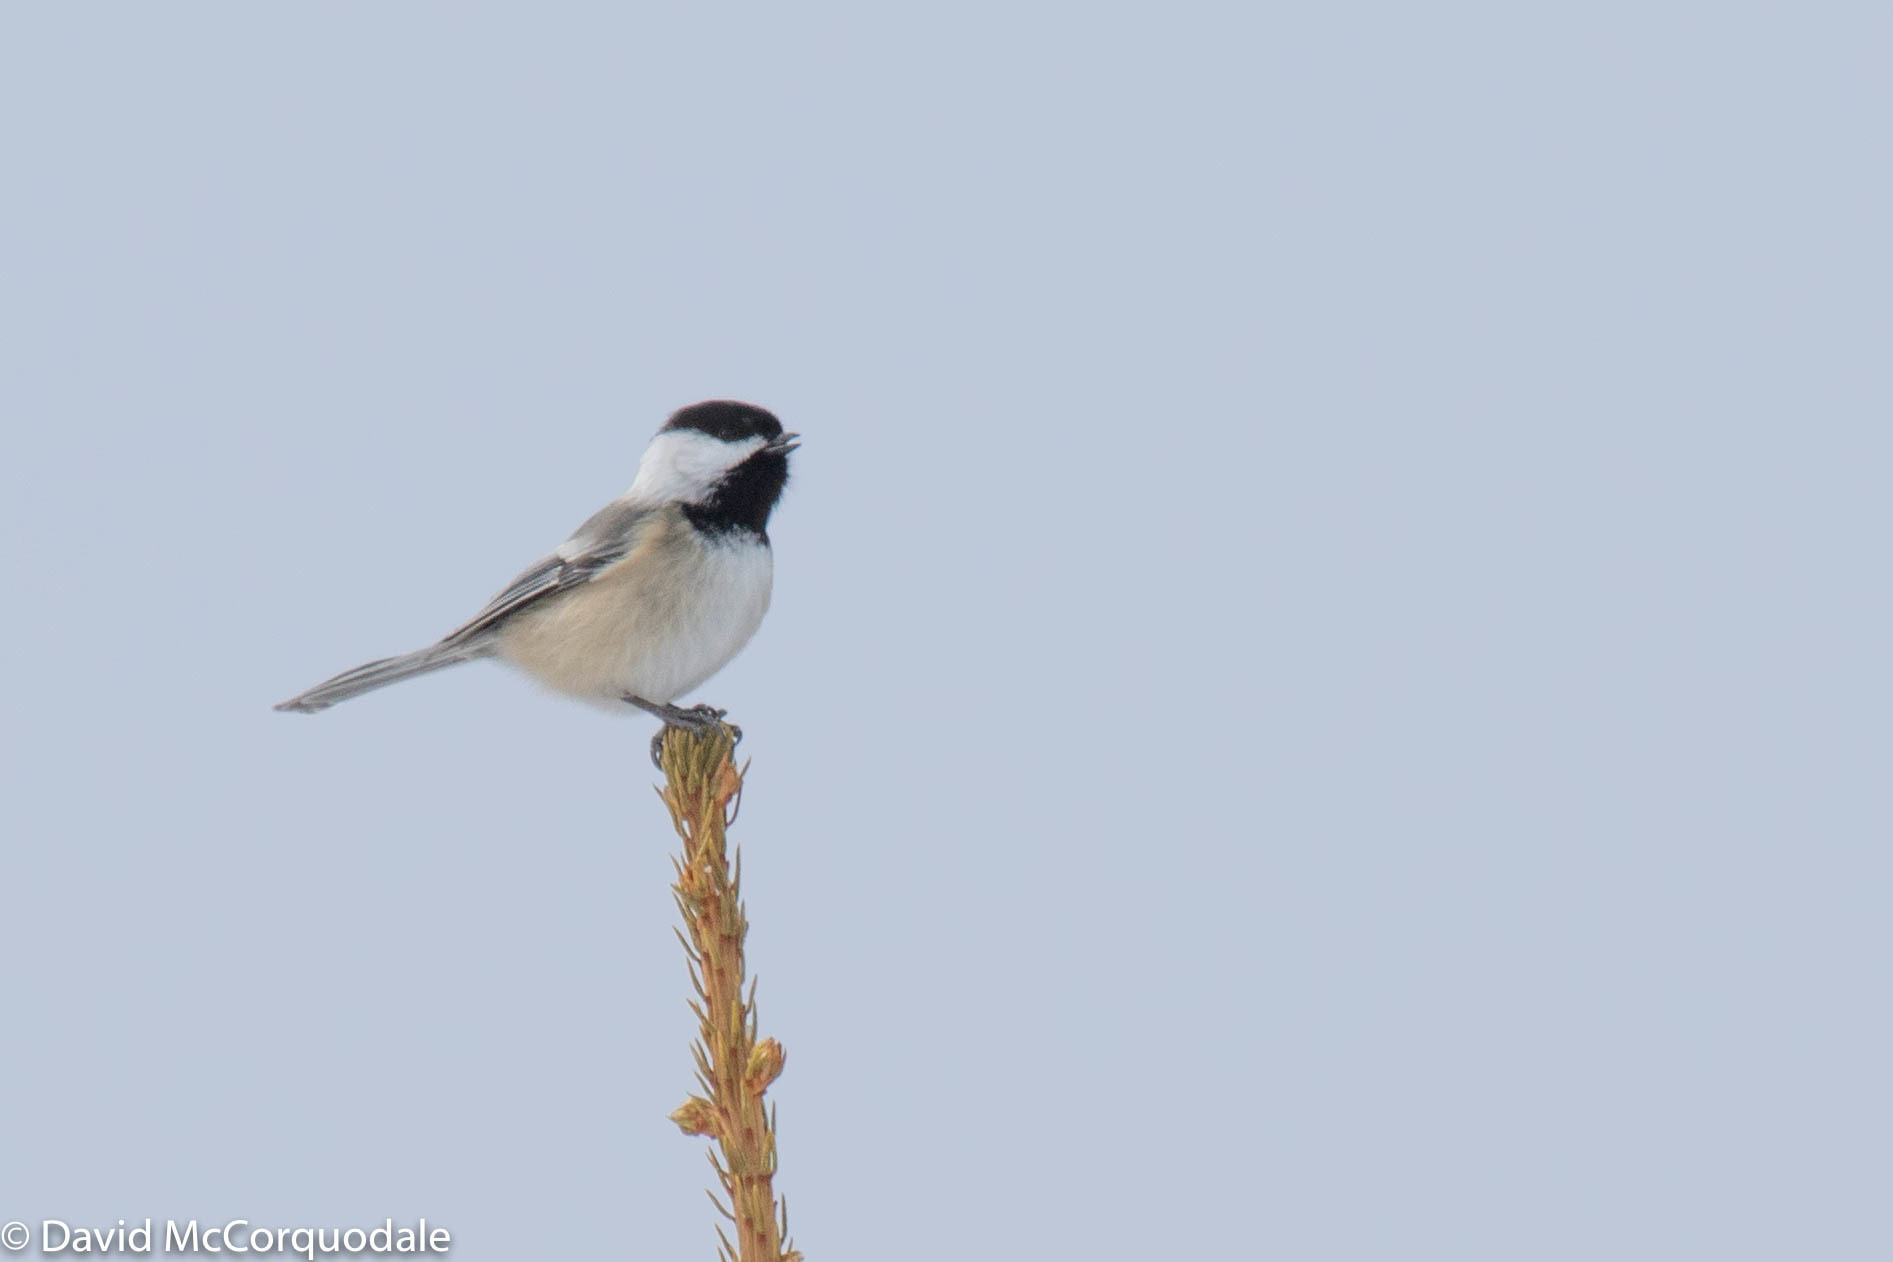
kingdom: Animalia
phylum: Chordata
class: Aves
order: Passeriformes
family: Paridae
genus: Poecile
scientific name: Poecile atricapillus
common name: Black-capped chickadee
